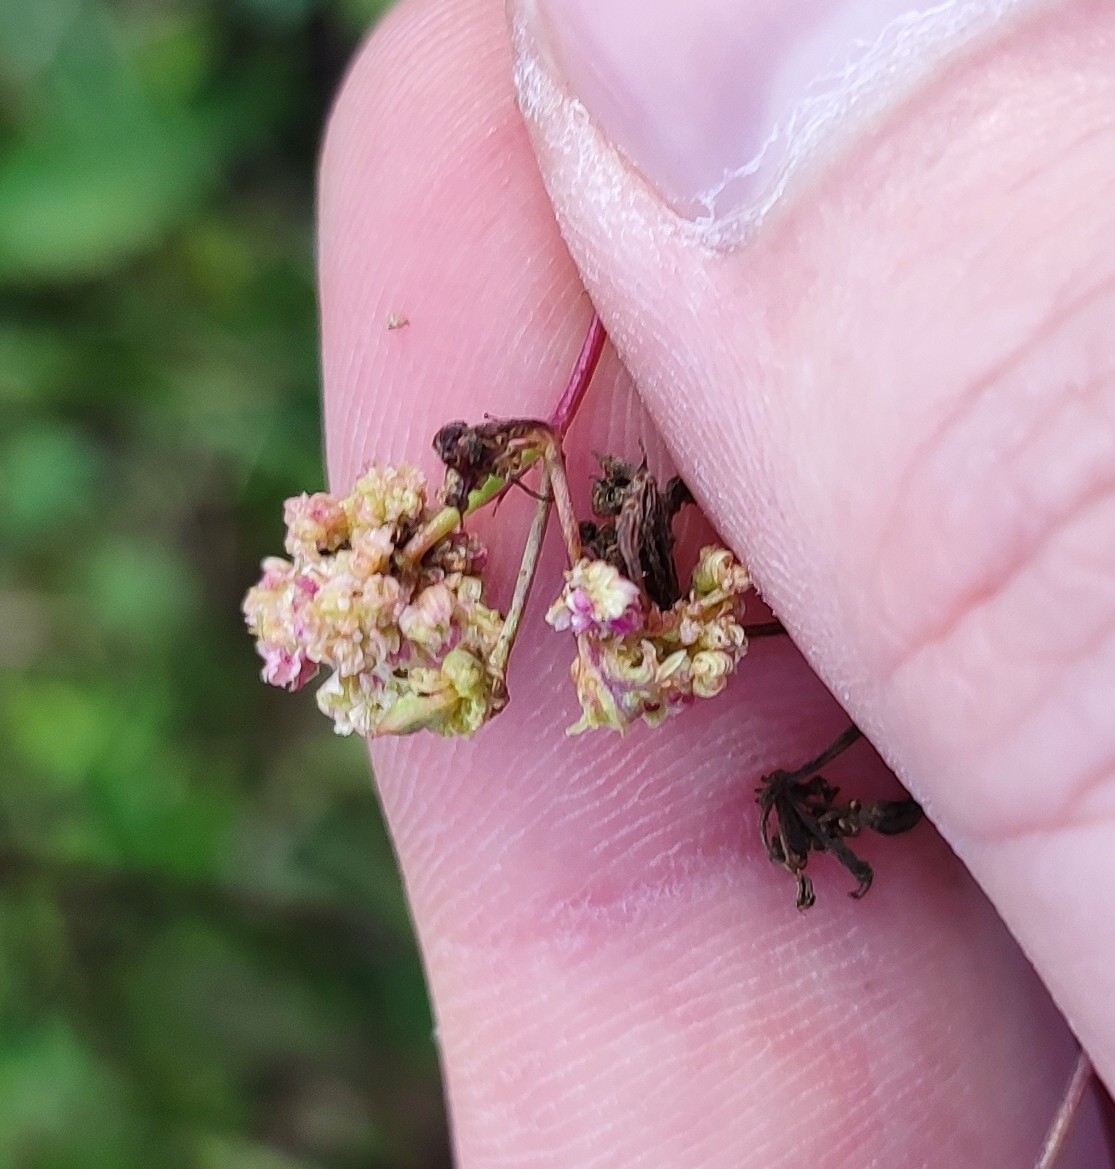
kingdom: Plantae
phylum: Tracheophyta
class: Magnoliopsida
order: Rosales
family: Rosaceae
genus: Spiraea
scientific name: Spiraea crenata
